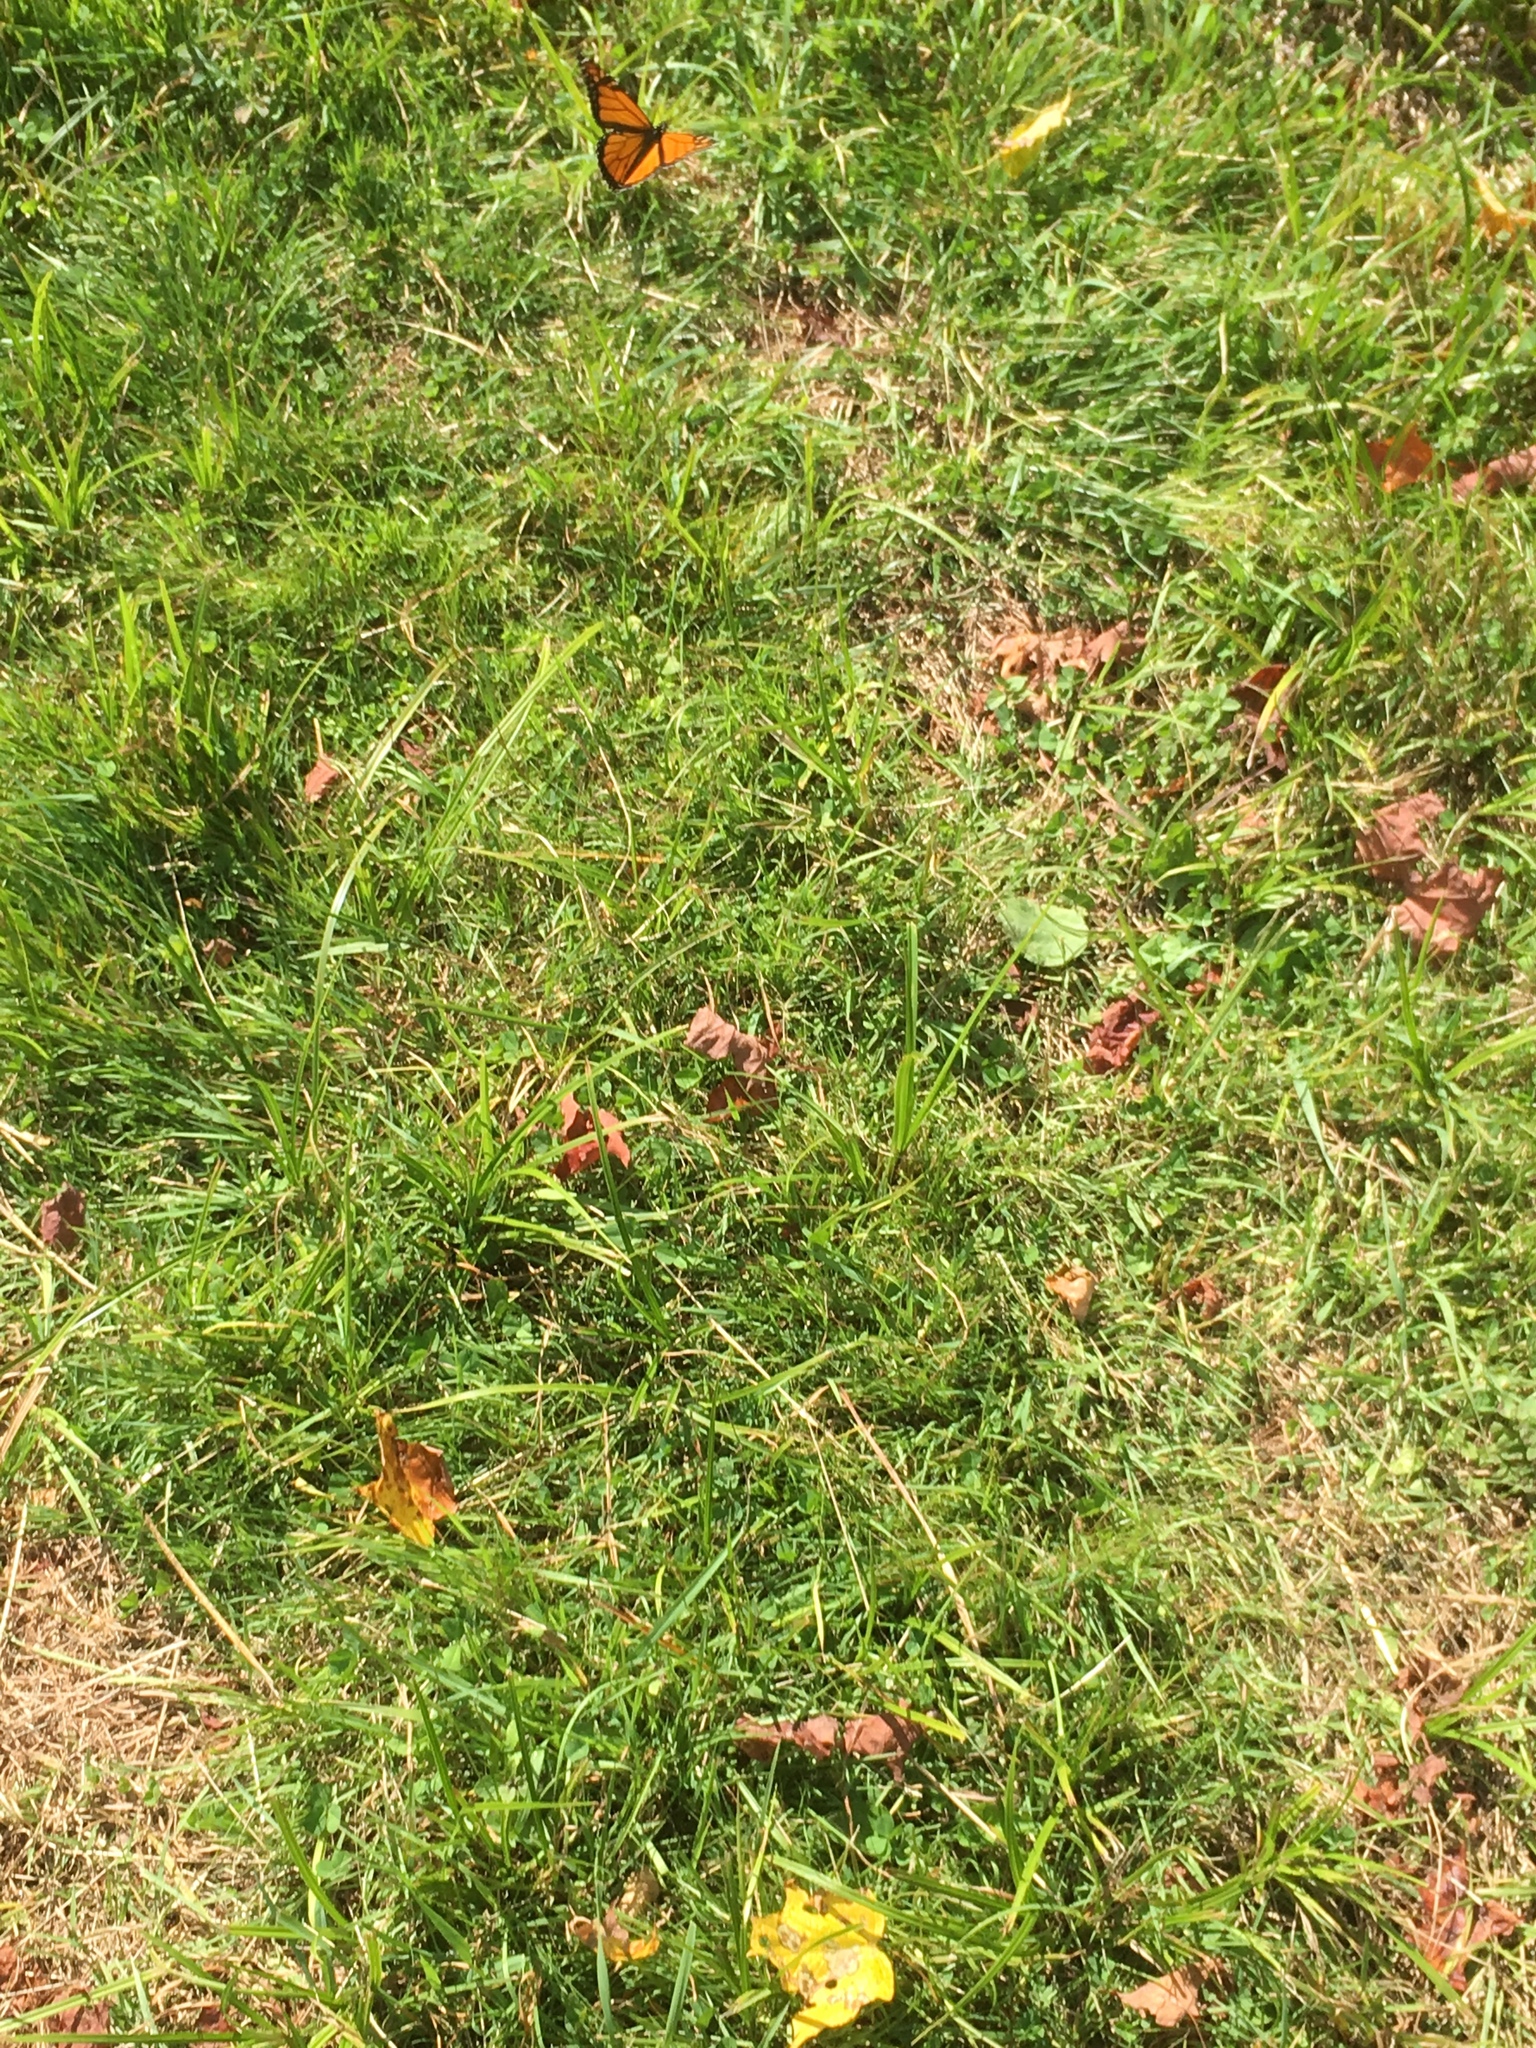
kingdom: Animalia
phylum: Arthropoda
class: Insecta
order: Lepidoptera
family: Nymphalidae
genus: Danaus
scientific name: Danaus plexippus
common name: Monarch
